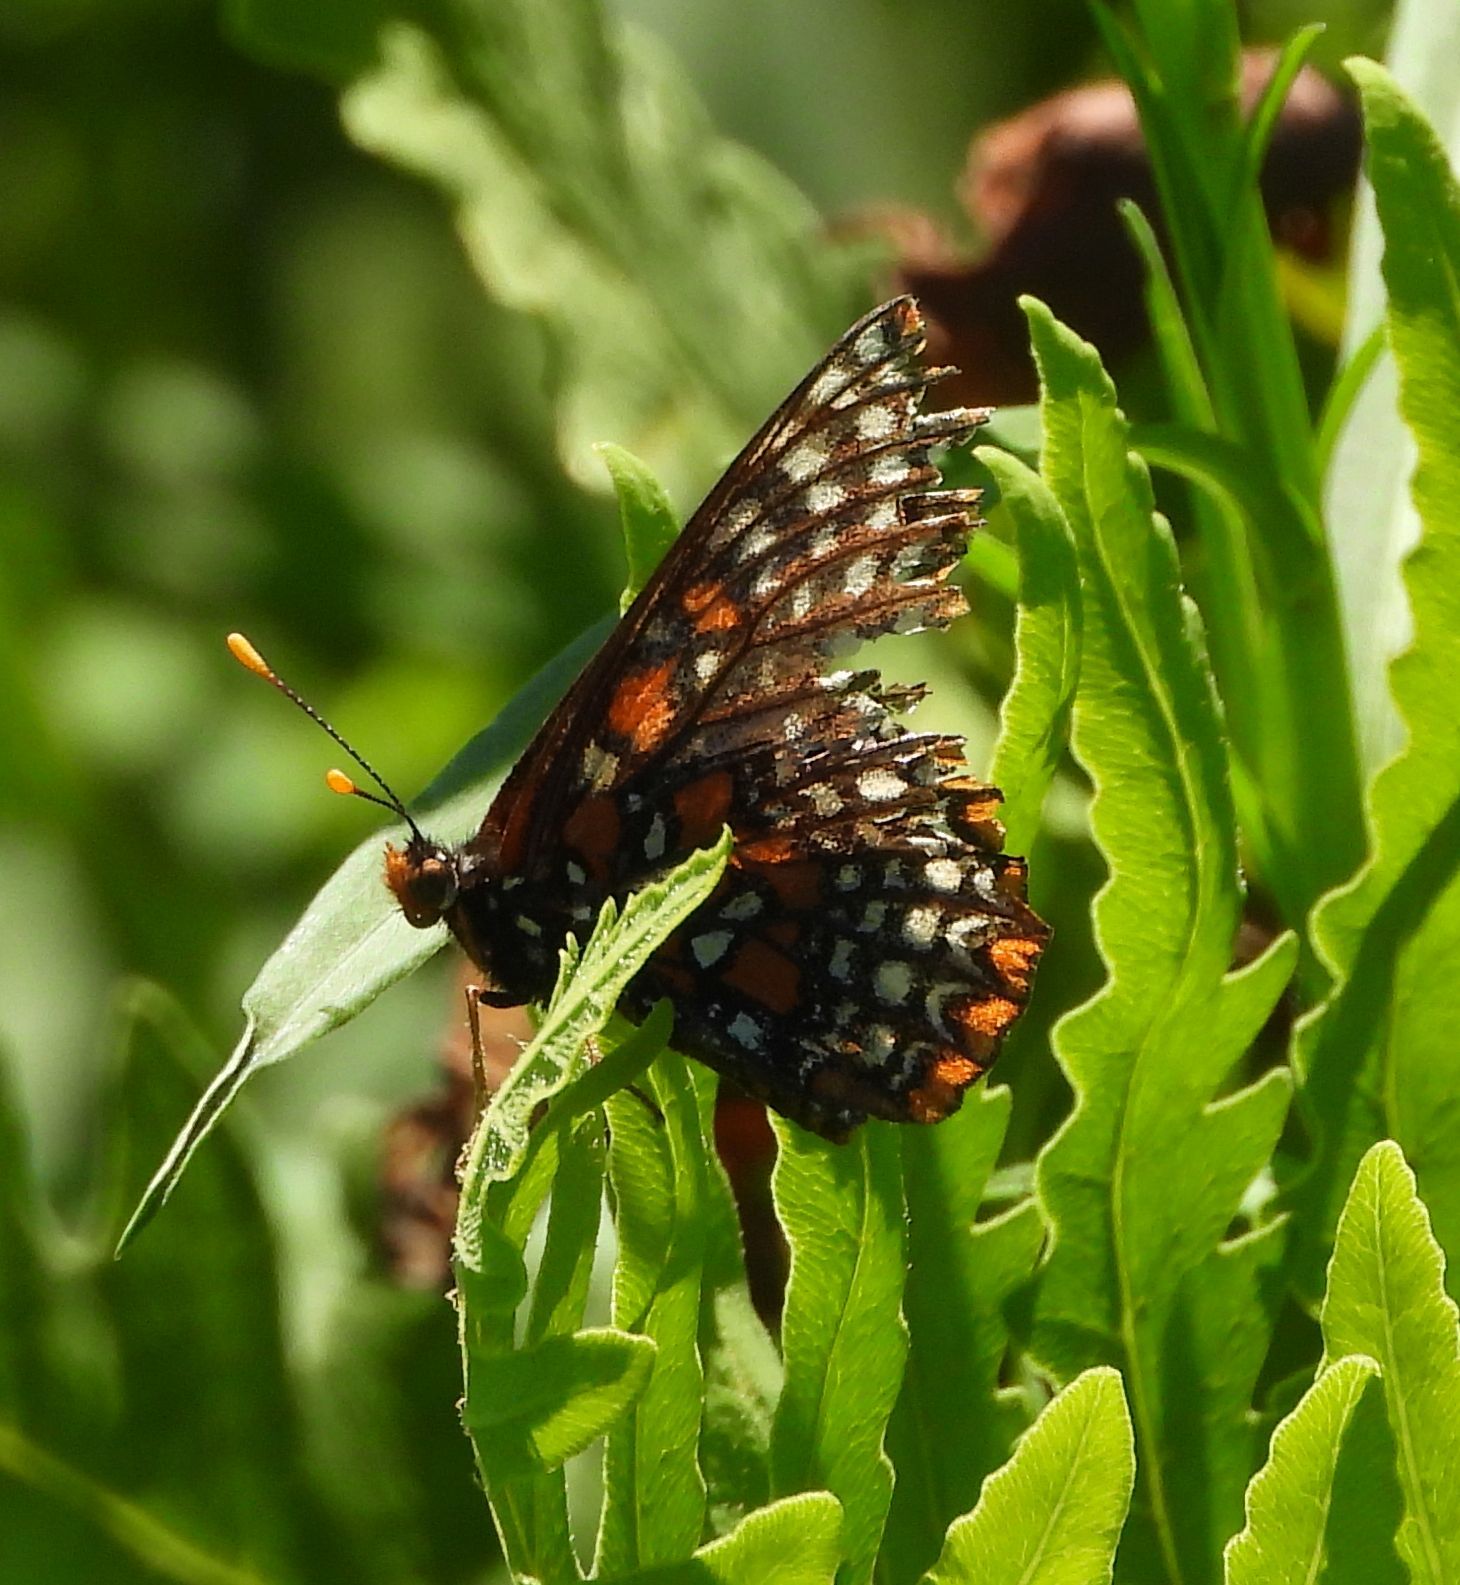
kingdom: Animalia
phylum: Arthropoda
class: Insecta
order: Lepidoptera
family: Nymphalidae
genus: Euphydryas
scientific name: Euphydryas phaeton
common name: Baltimore checkerspot
